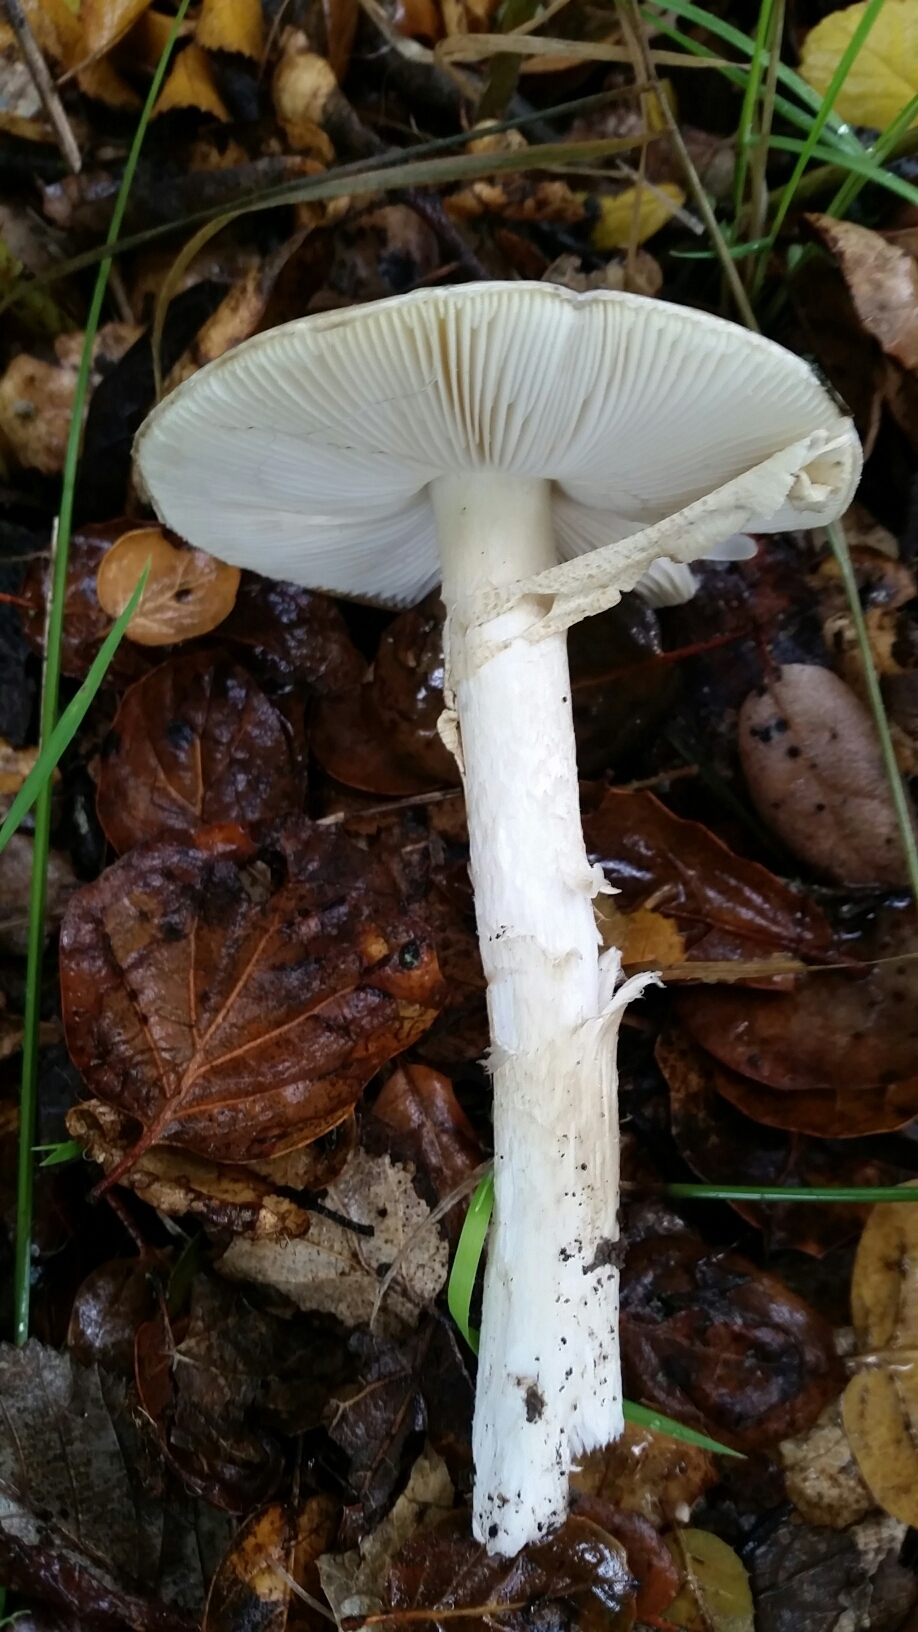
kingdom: Fungi
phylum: Basidiomycota
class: Agaricomycetes
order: Agaricales
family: Amanitaceae
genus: Amanita
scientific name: Amanita phalloides
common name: Death cap
